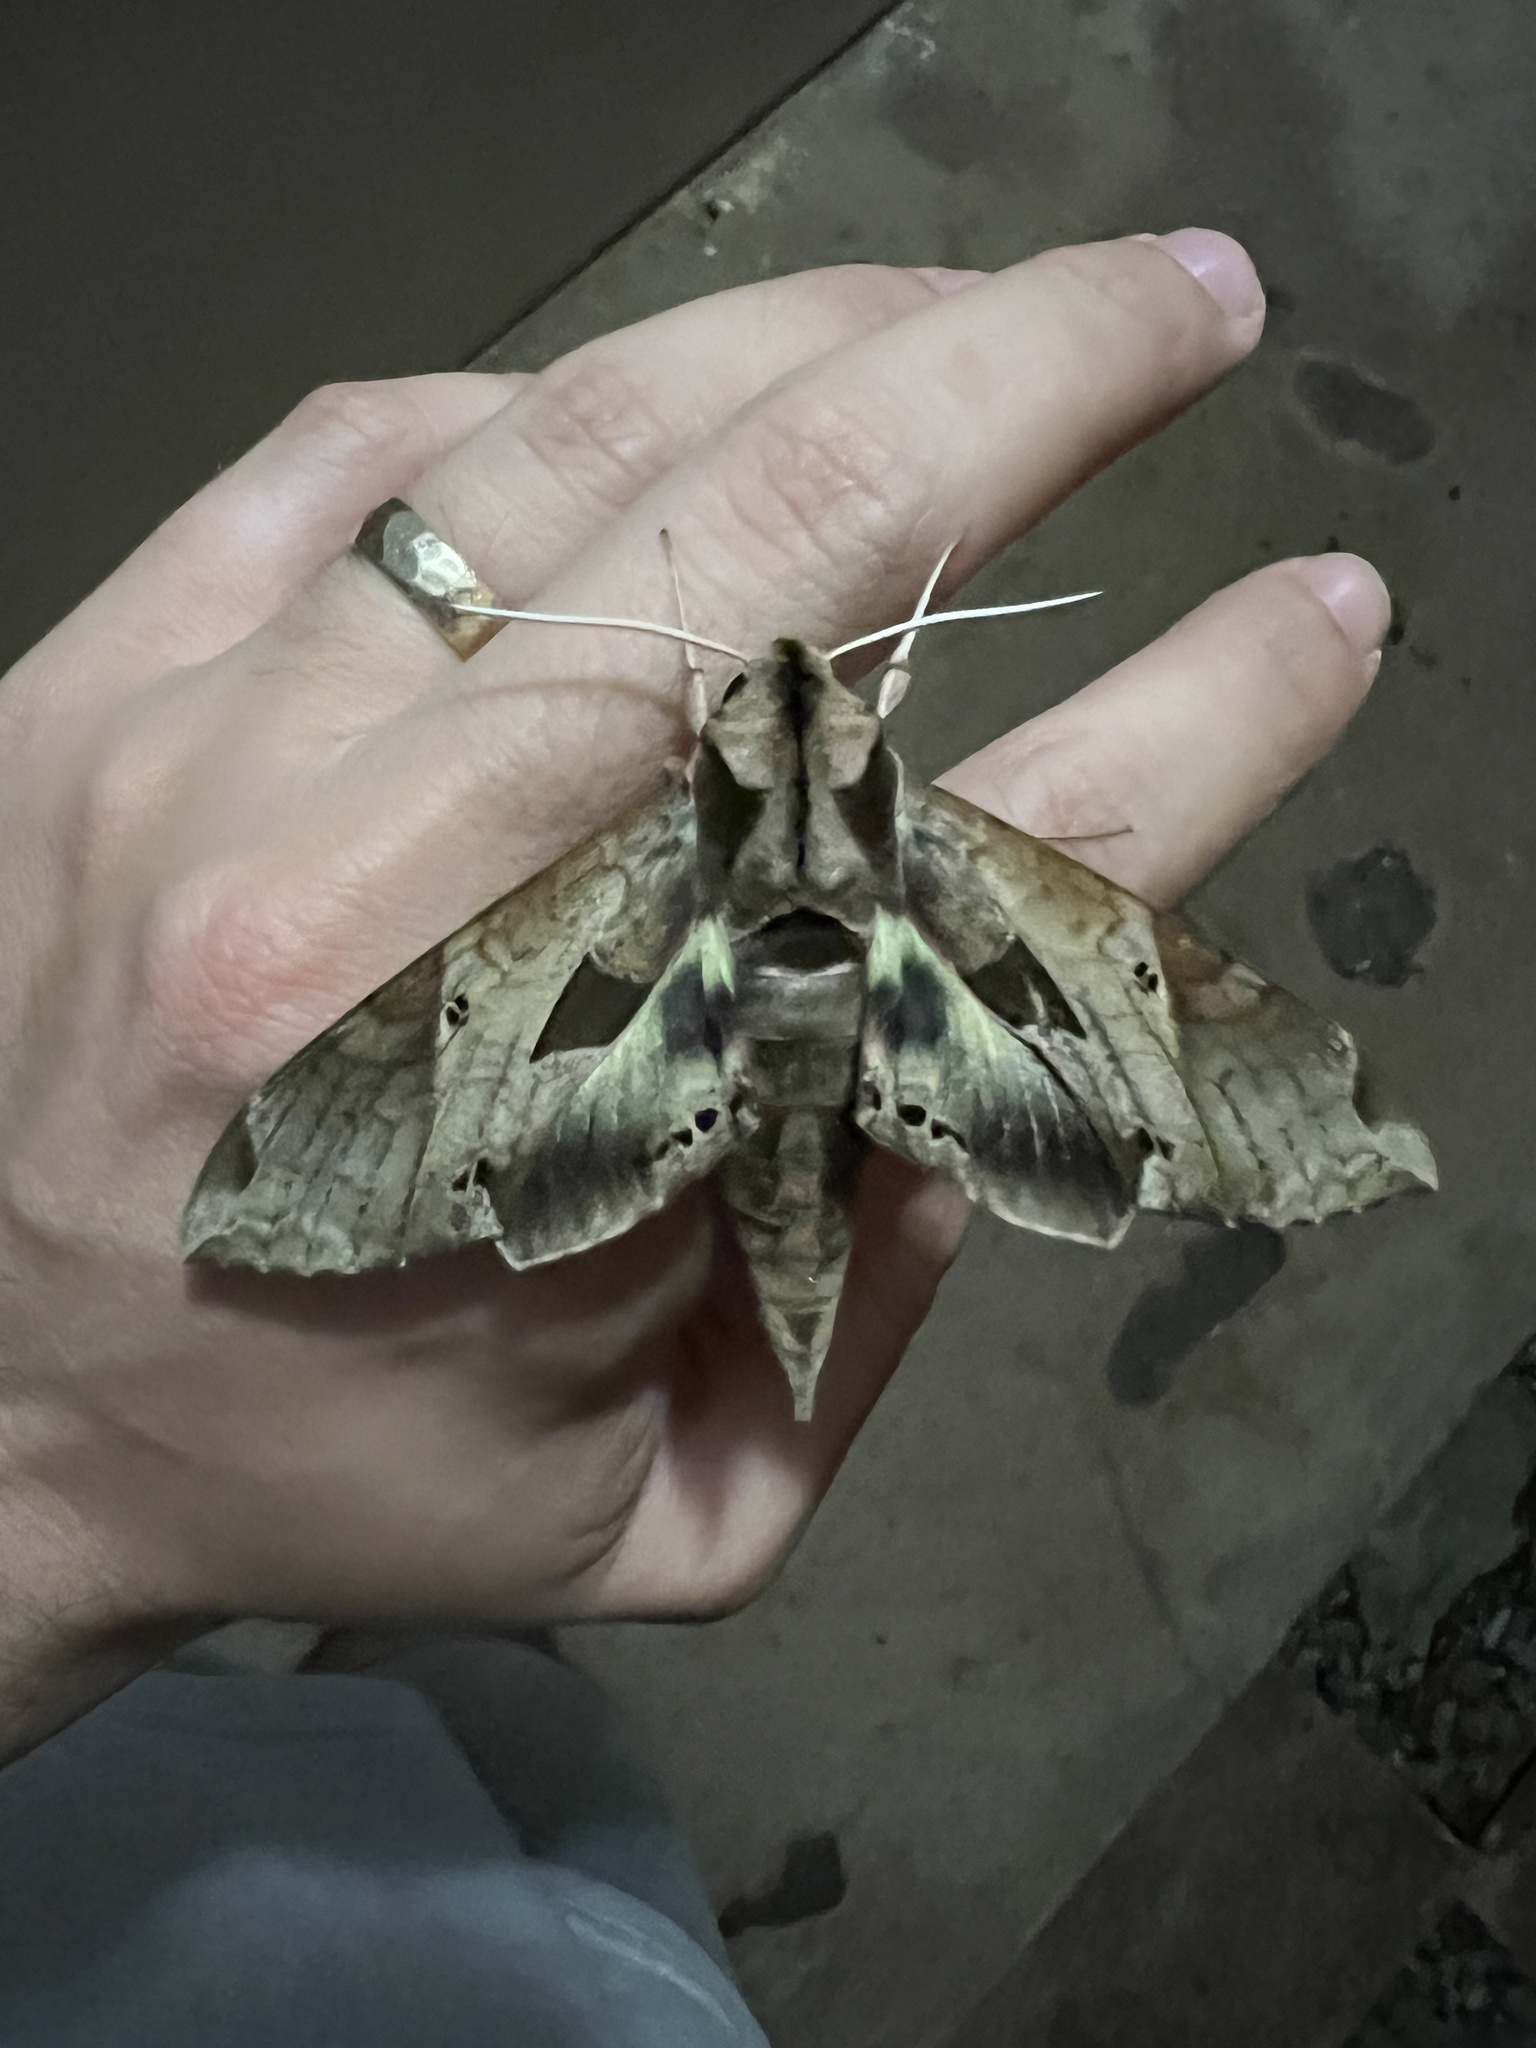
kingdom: Animalia
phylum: Arthropoda
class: Insecta
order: Lepidoptera
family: Sphingidae
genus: Eumorpha
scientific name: Eumorpha satellitia
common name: Satellite sphinx
